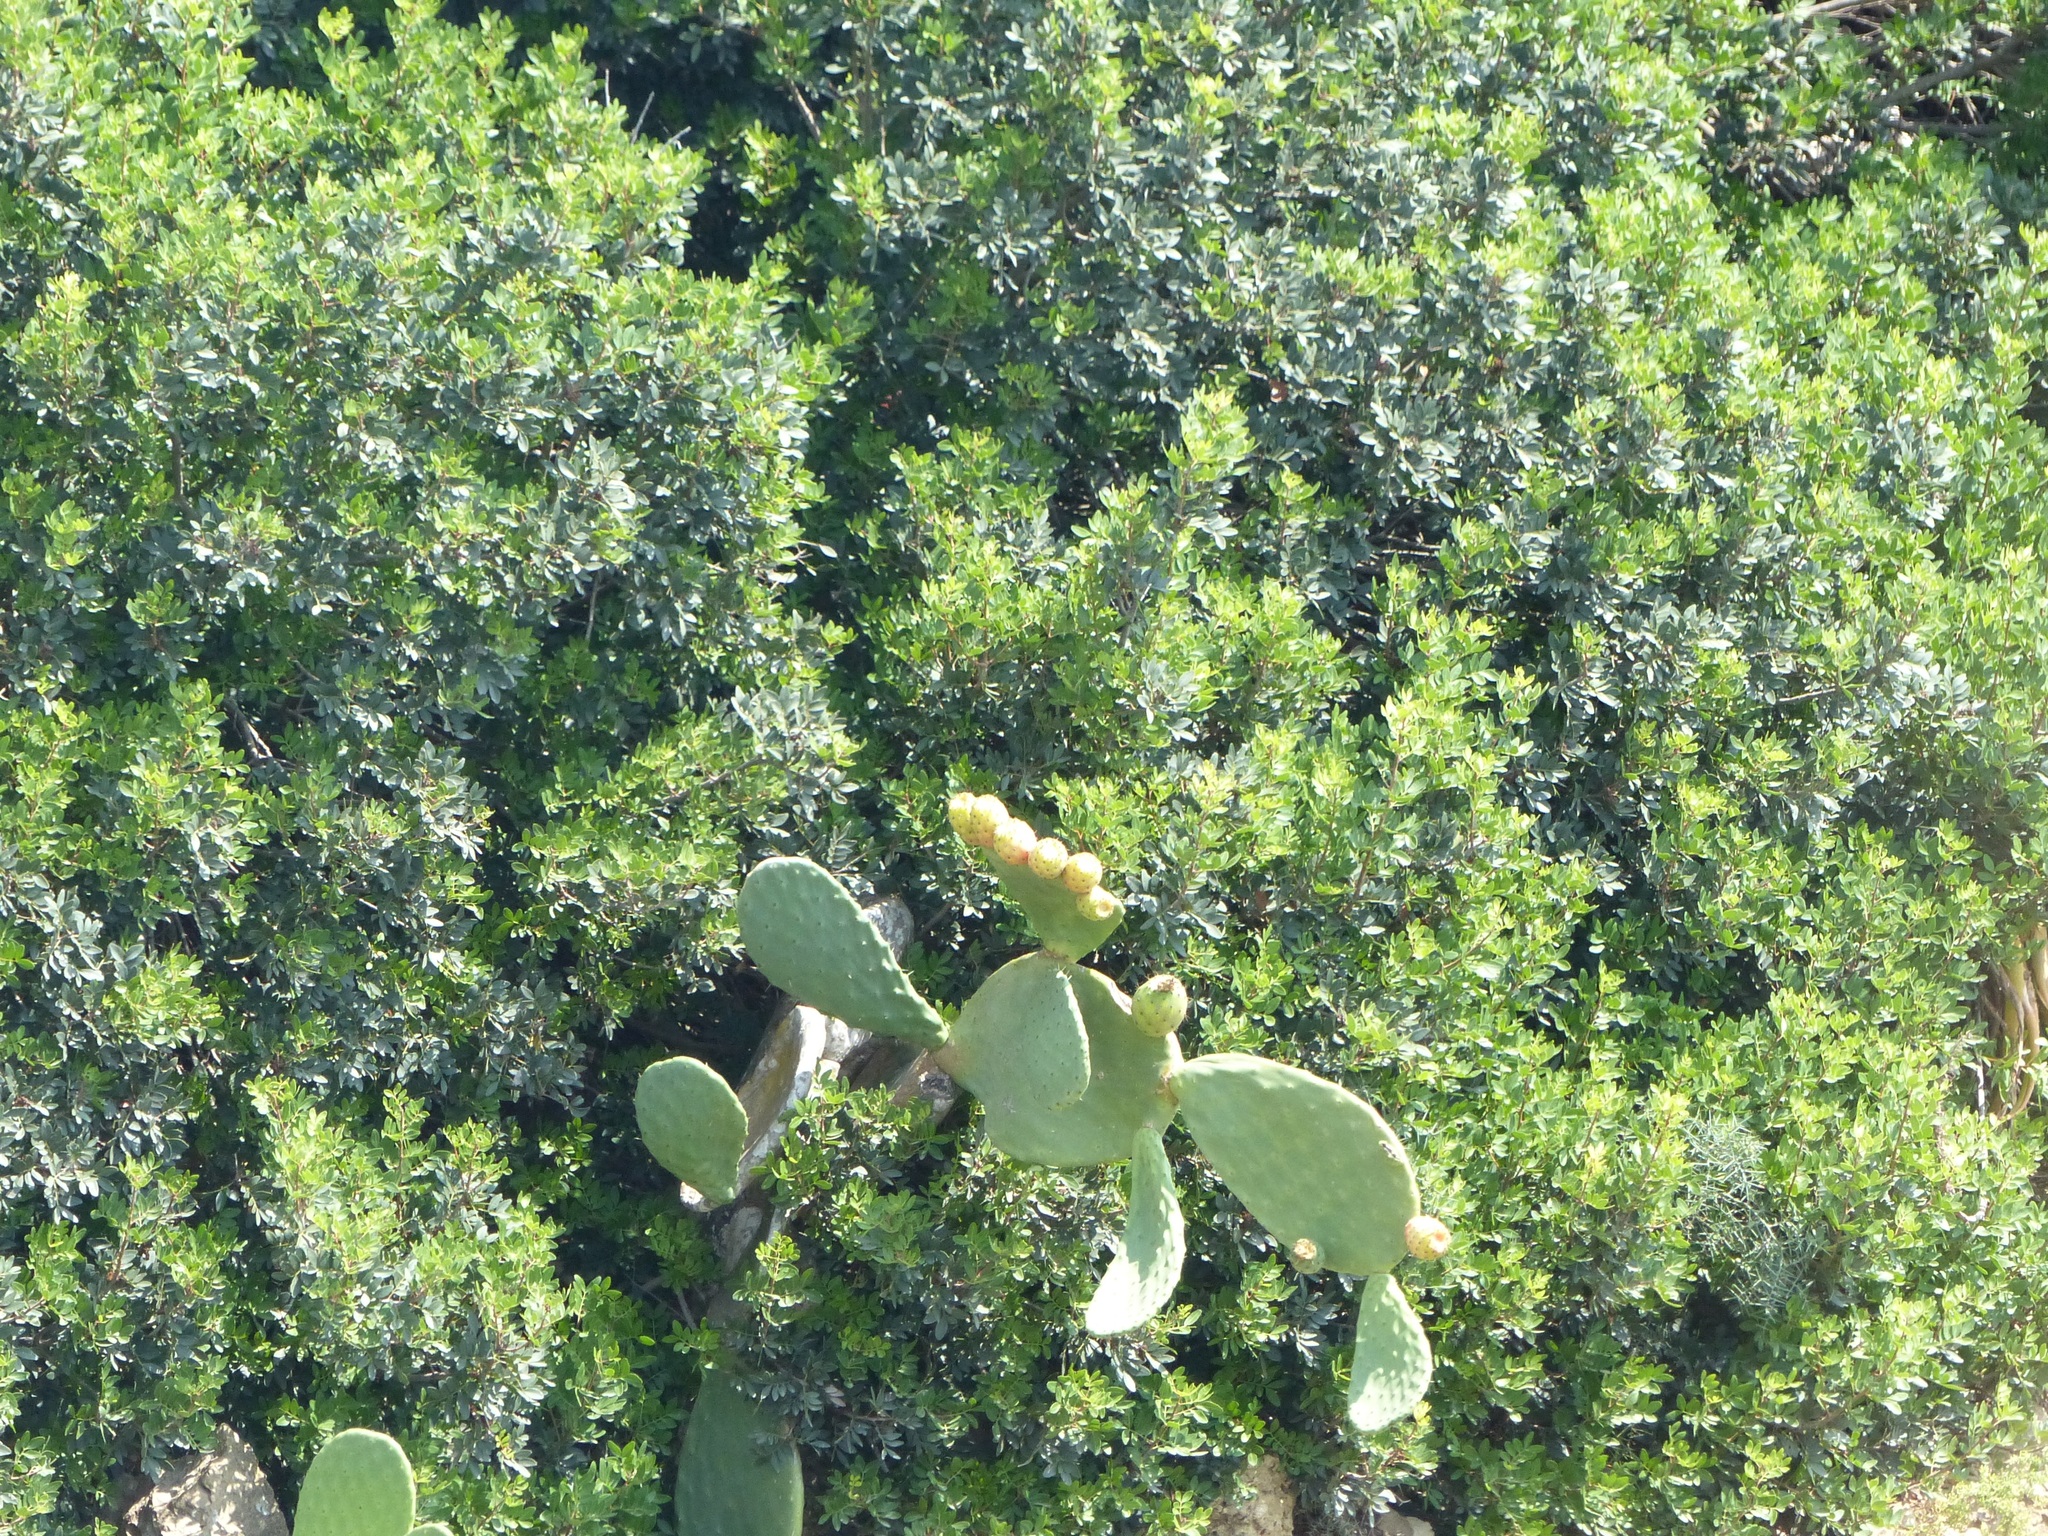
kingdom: Plantae
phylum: Tracheophyta
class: Magnoliopsida
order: Caryophyllales
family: Cactaceae
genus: Opuntia
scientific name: Opuntia ficus-indica
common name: Barbary fig
